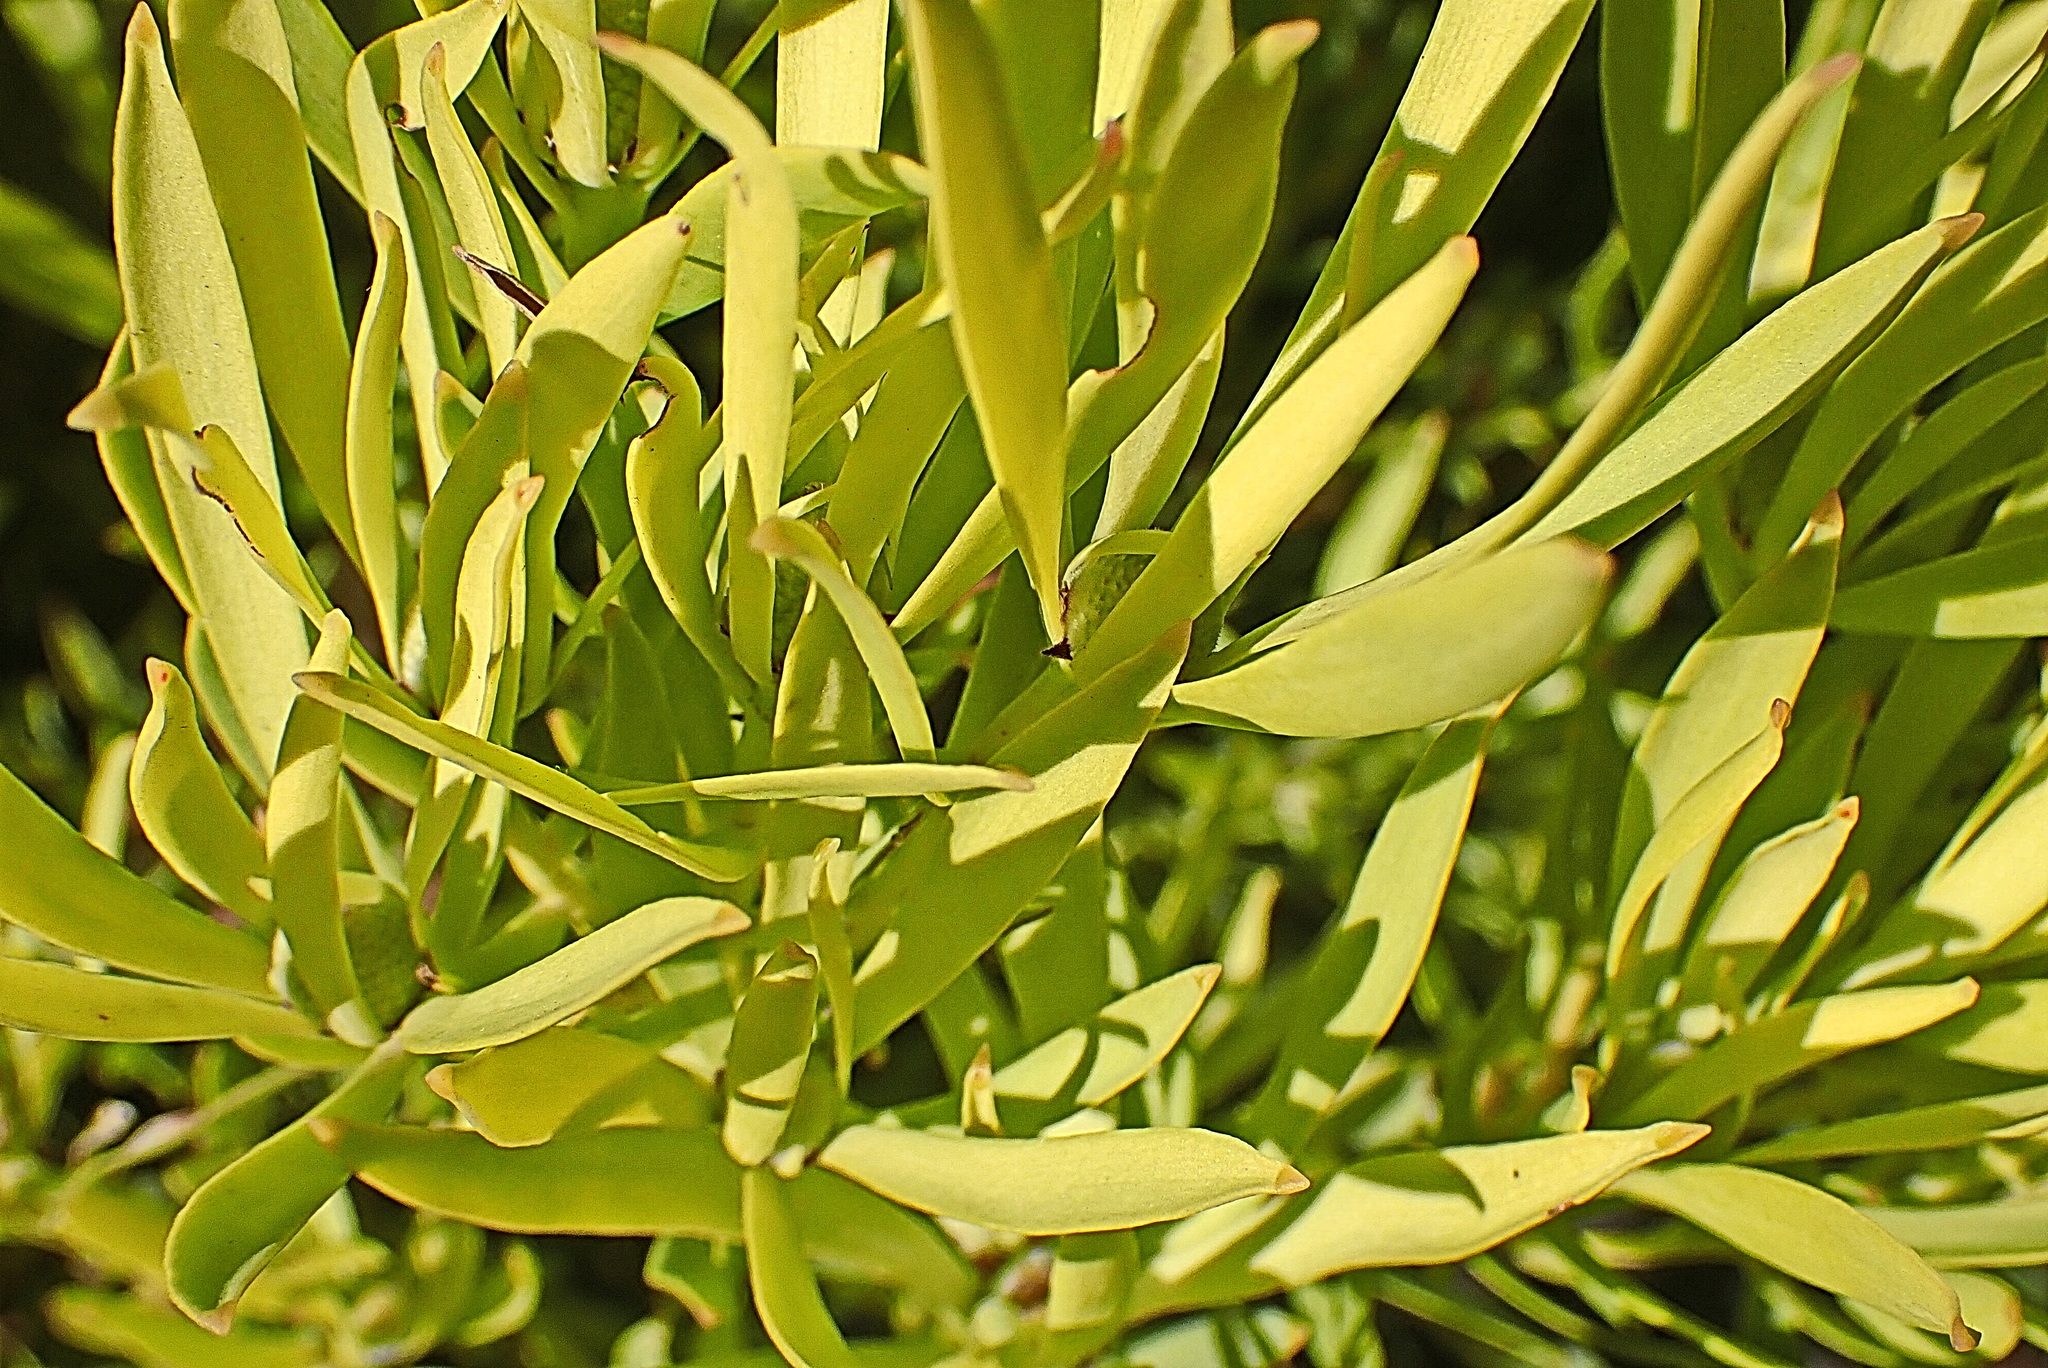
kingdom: Plantae
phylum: Tracheophyta
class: Magnoliopsida
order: Proteales
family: Proteaceae
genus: Leucadendron
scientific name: Leucadendron salignum
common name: Common sunshine conebush
